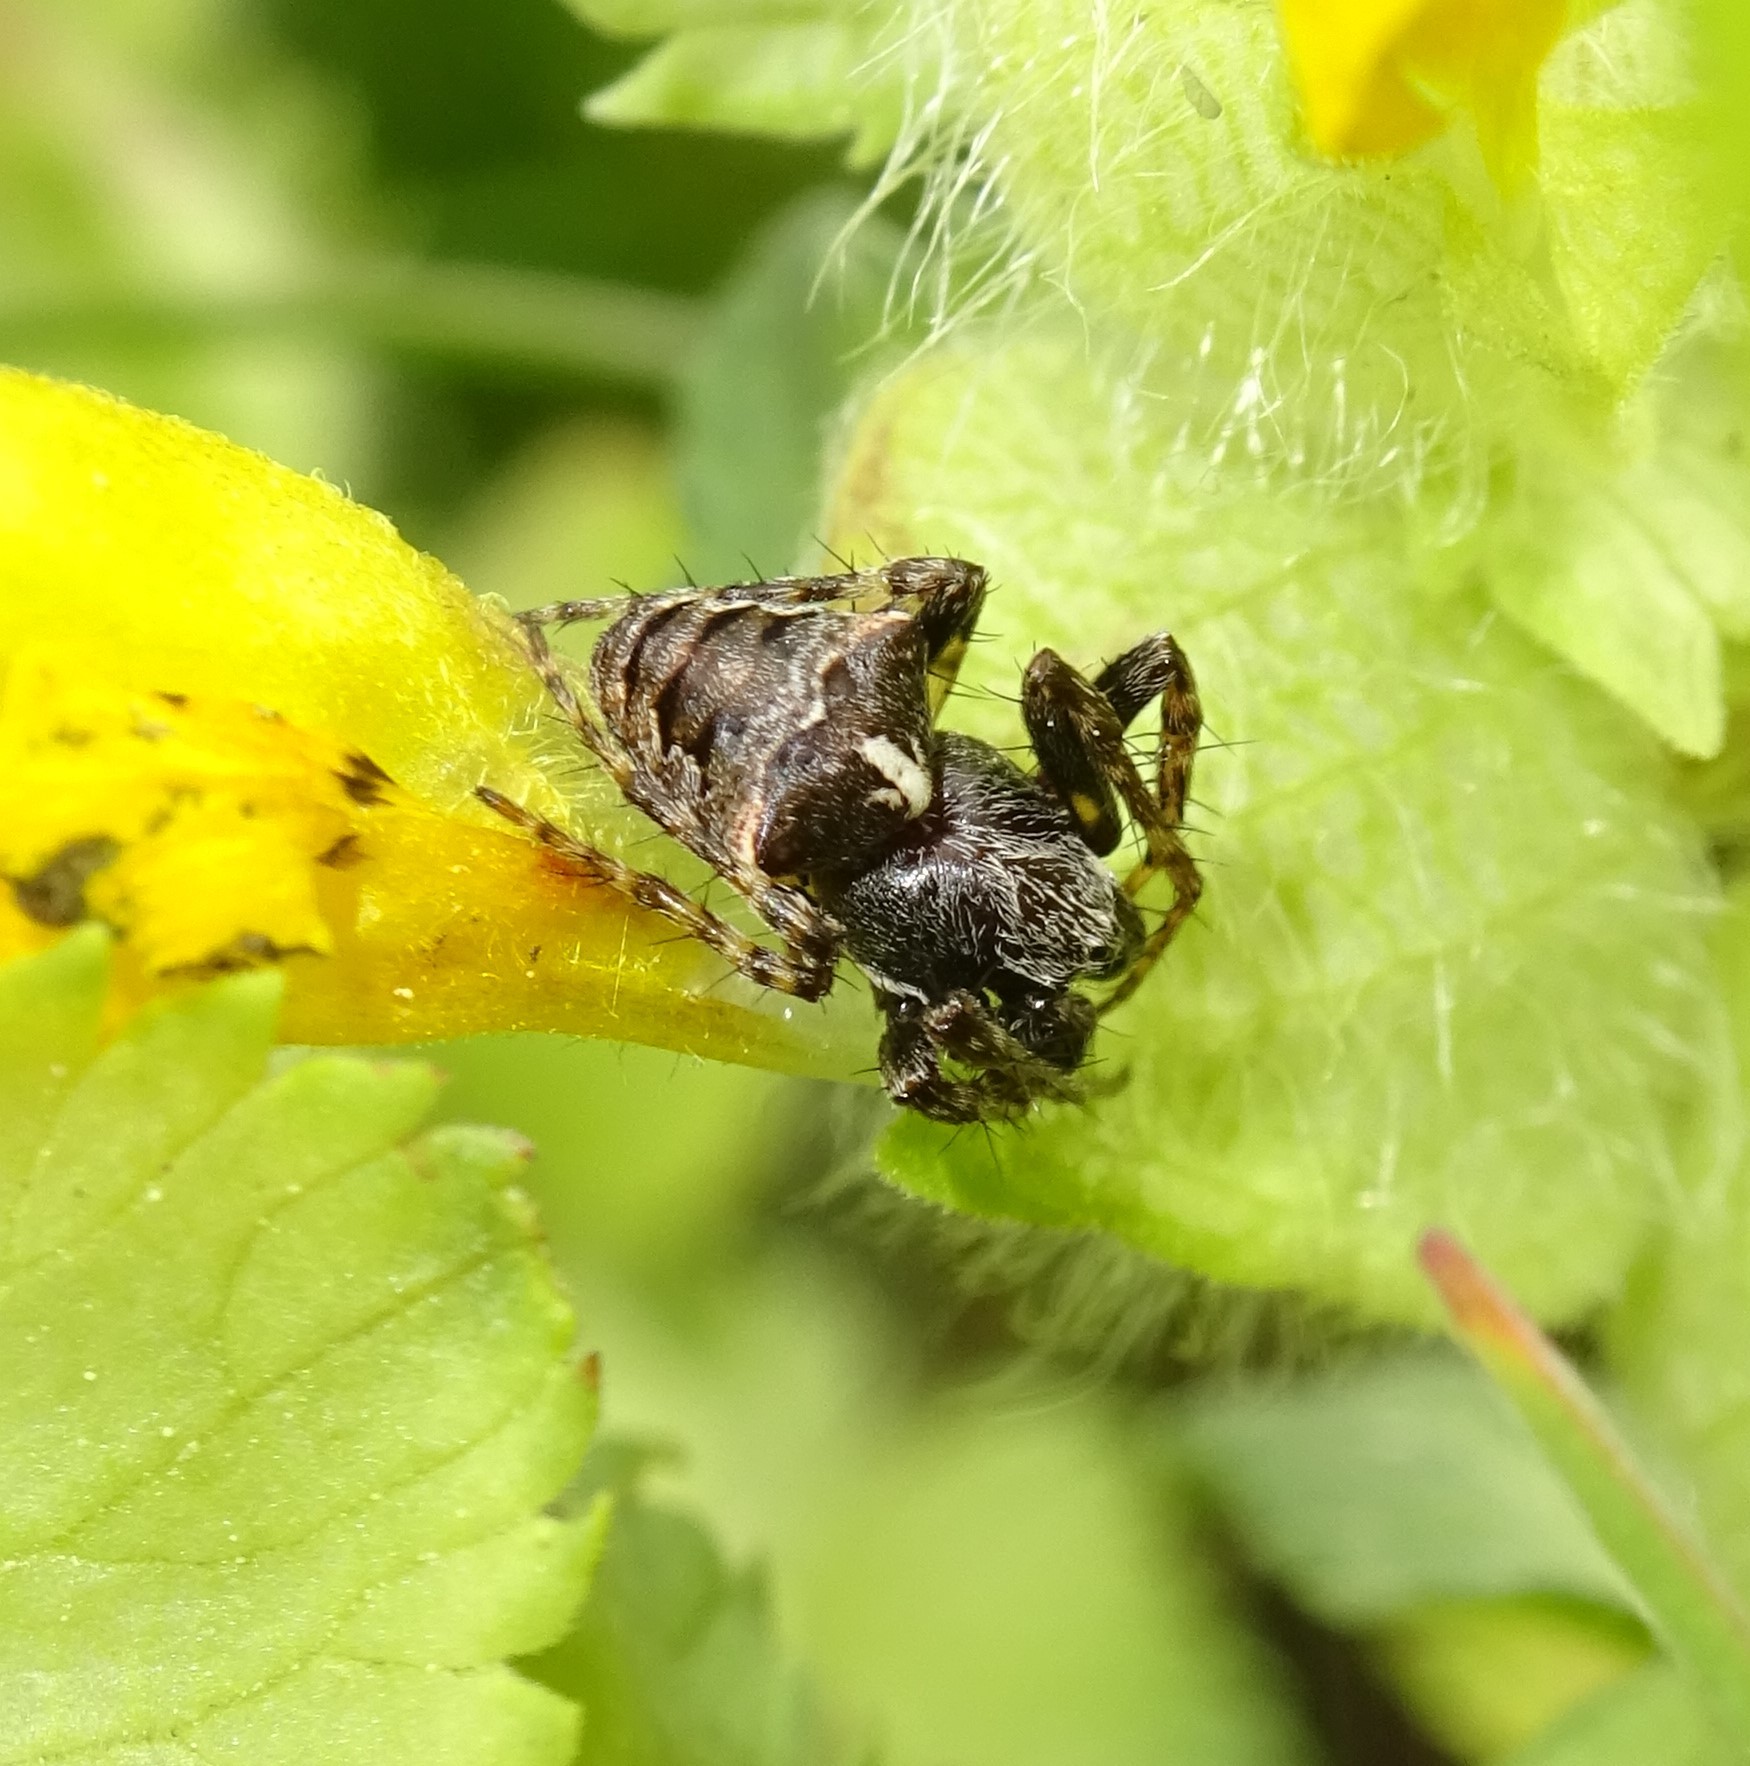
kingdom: Animalia
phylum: Arthropoda
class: Arachnida
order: Araneae
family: Araneidae
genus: Gibbaranea
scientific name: Gibbaranea bituberculata
